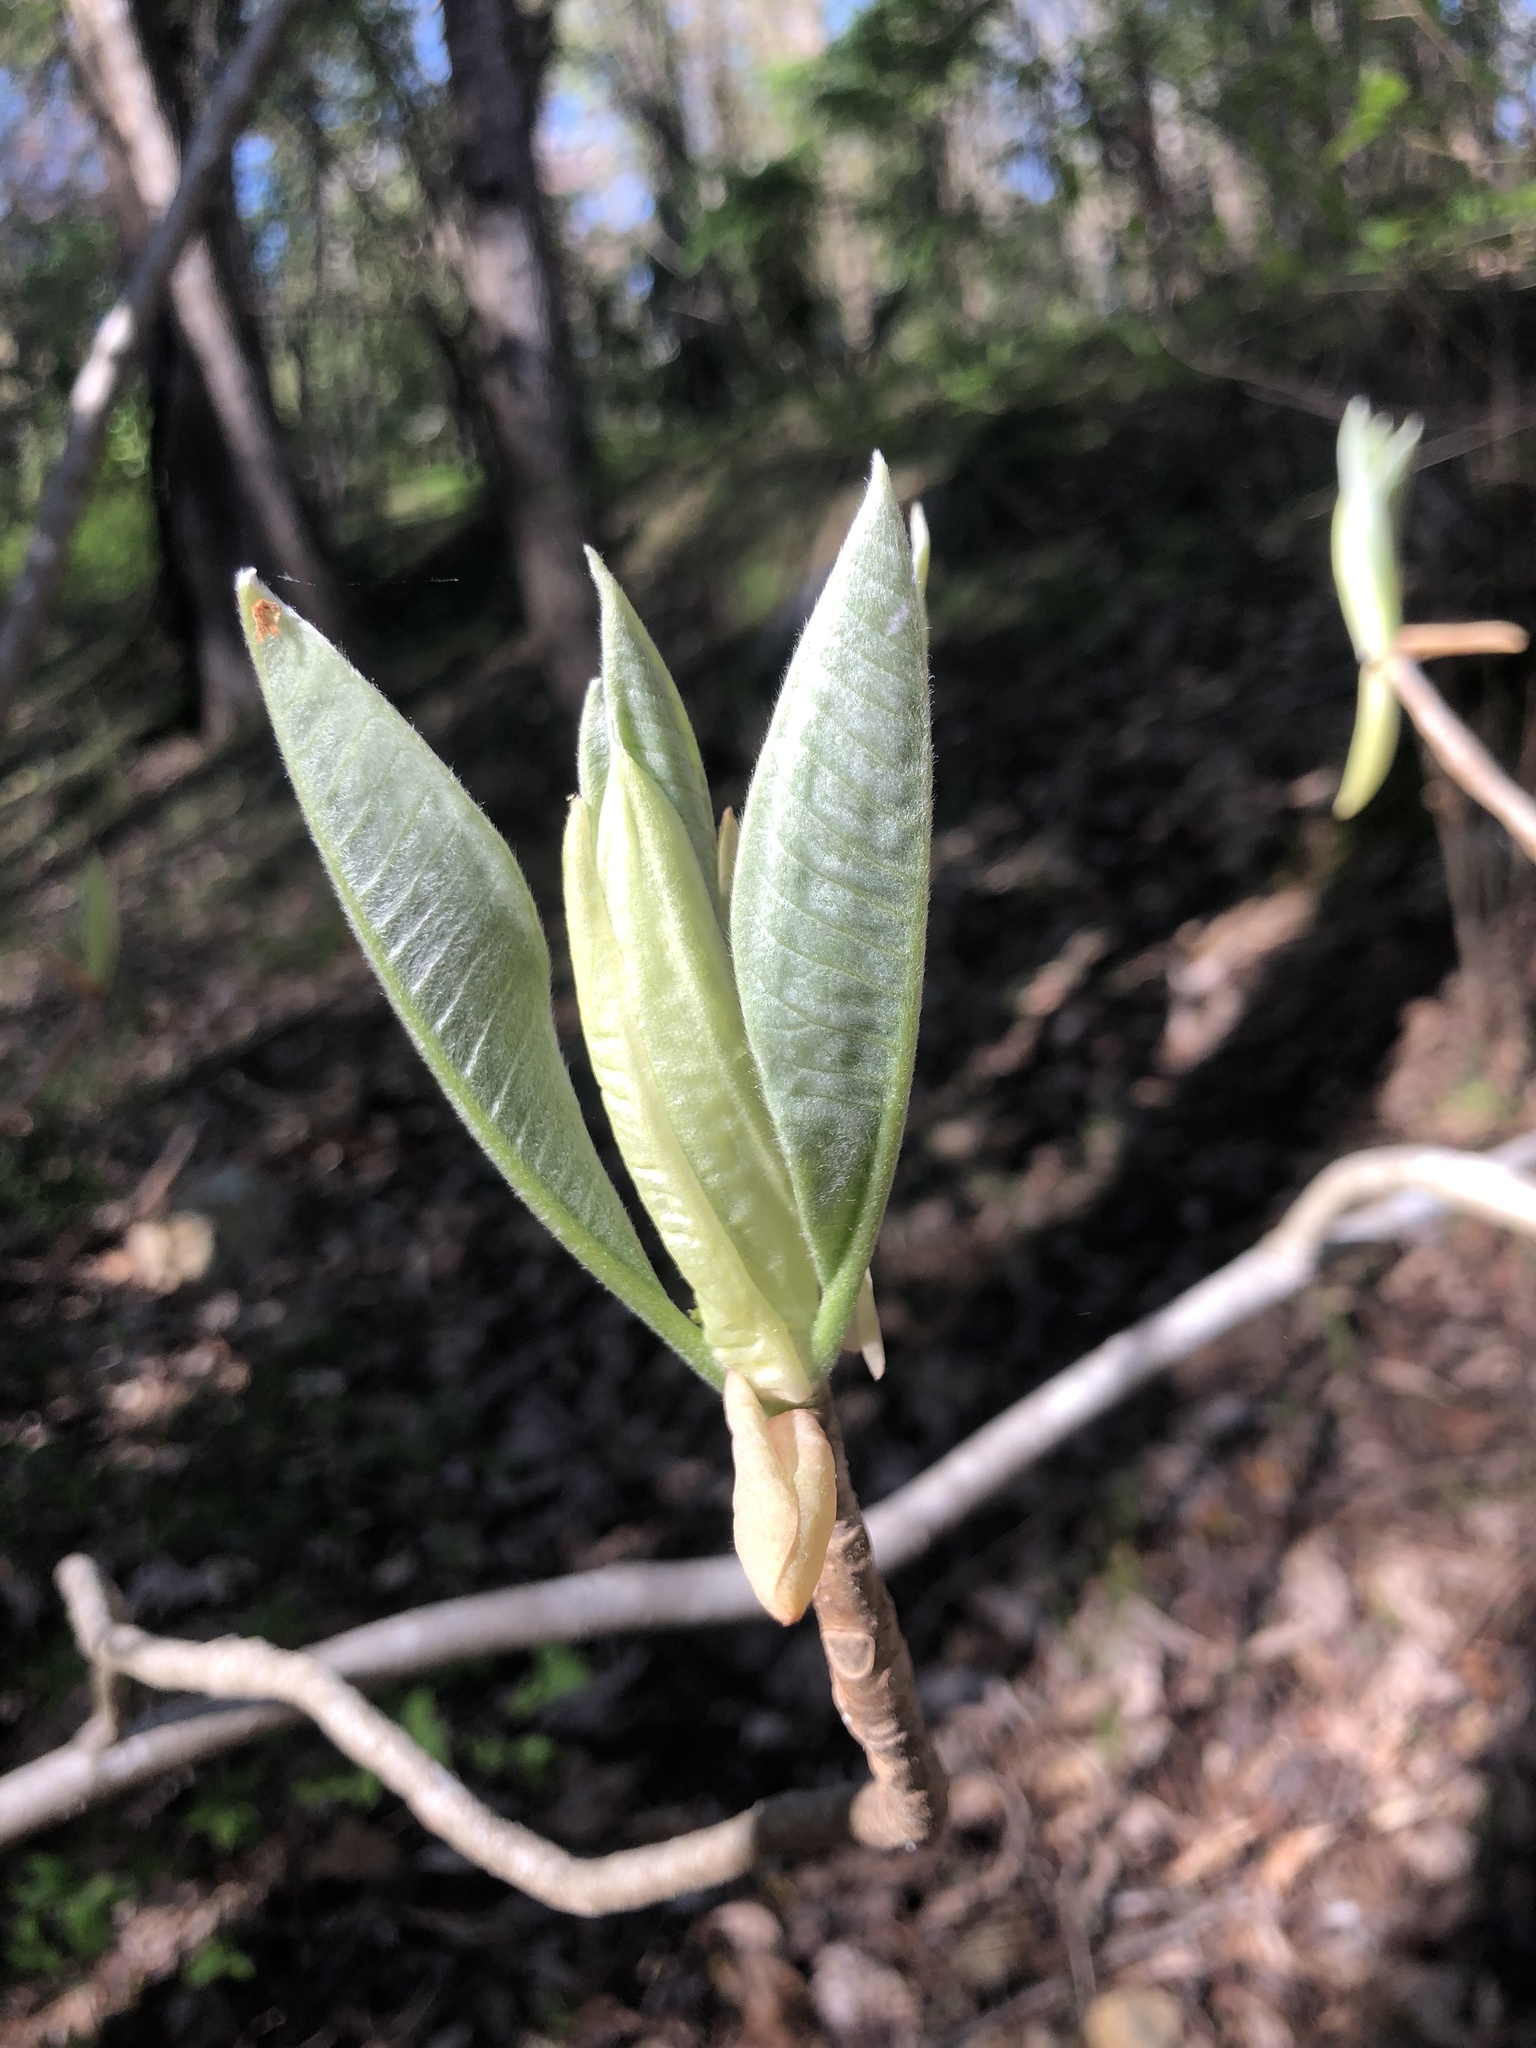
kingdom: Plantae
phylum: Tracheophyta
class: Magnoliopsida
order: Magnoliales
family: Magnoliaceae
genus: Magnolia
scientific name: Magnolia tripetala
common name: Umbrella magnolia
